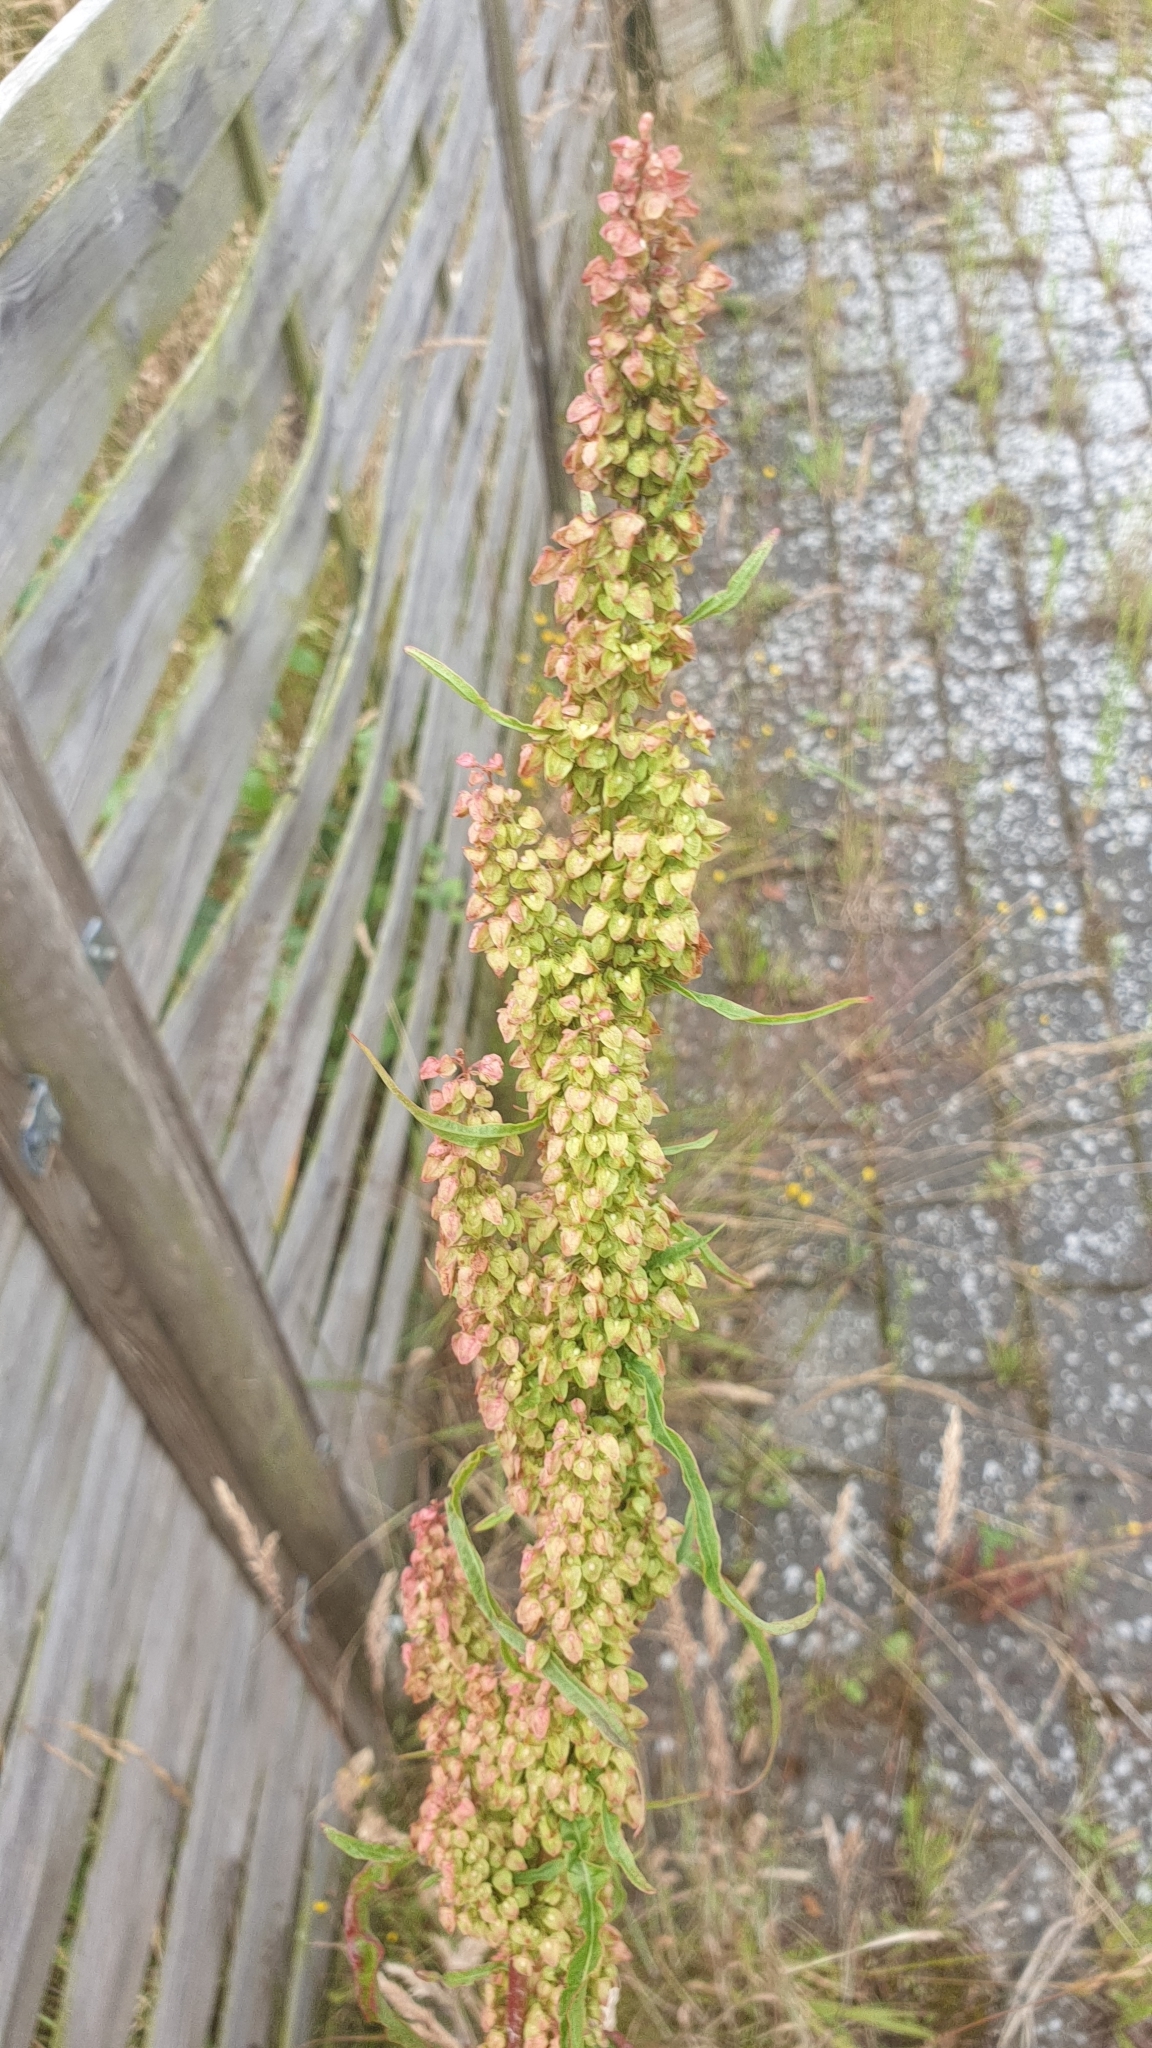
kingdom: Plantae
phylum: Tracheophyta
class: Magnoliopsida
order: Caryophyllales
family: Polygonaceae
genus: Rumex
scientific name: Rumex crispus
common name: Curled dock
